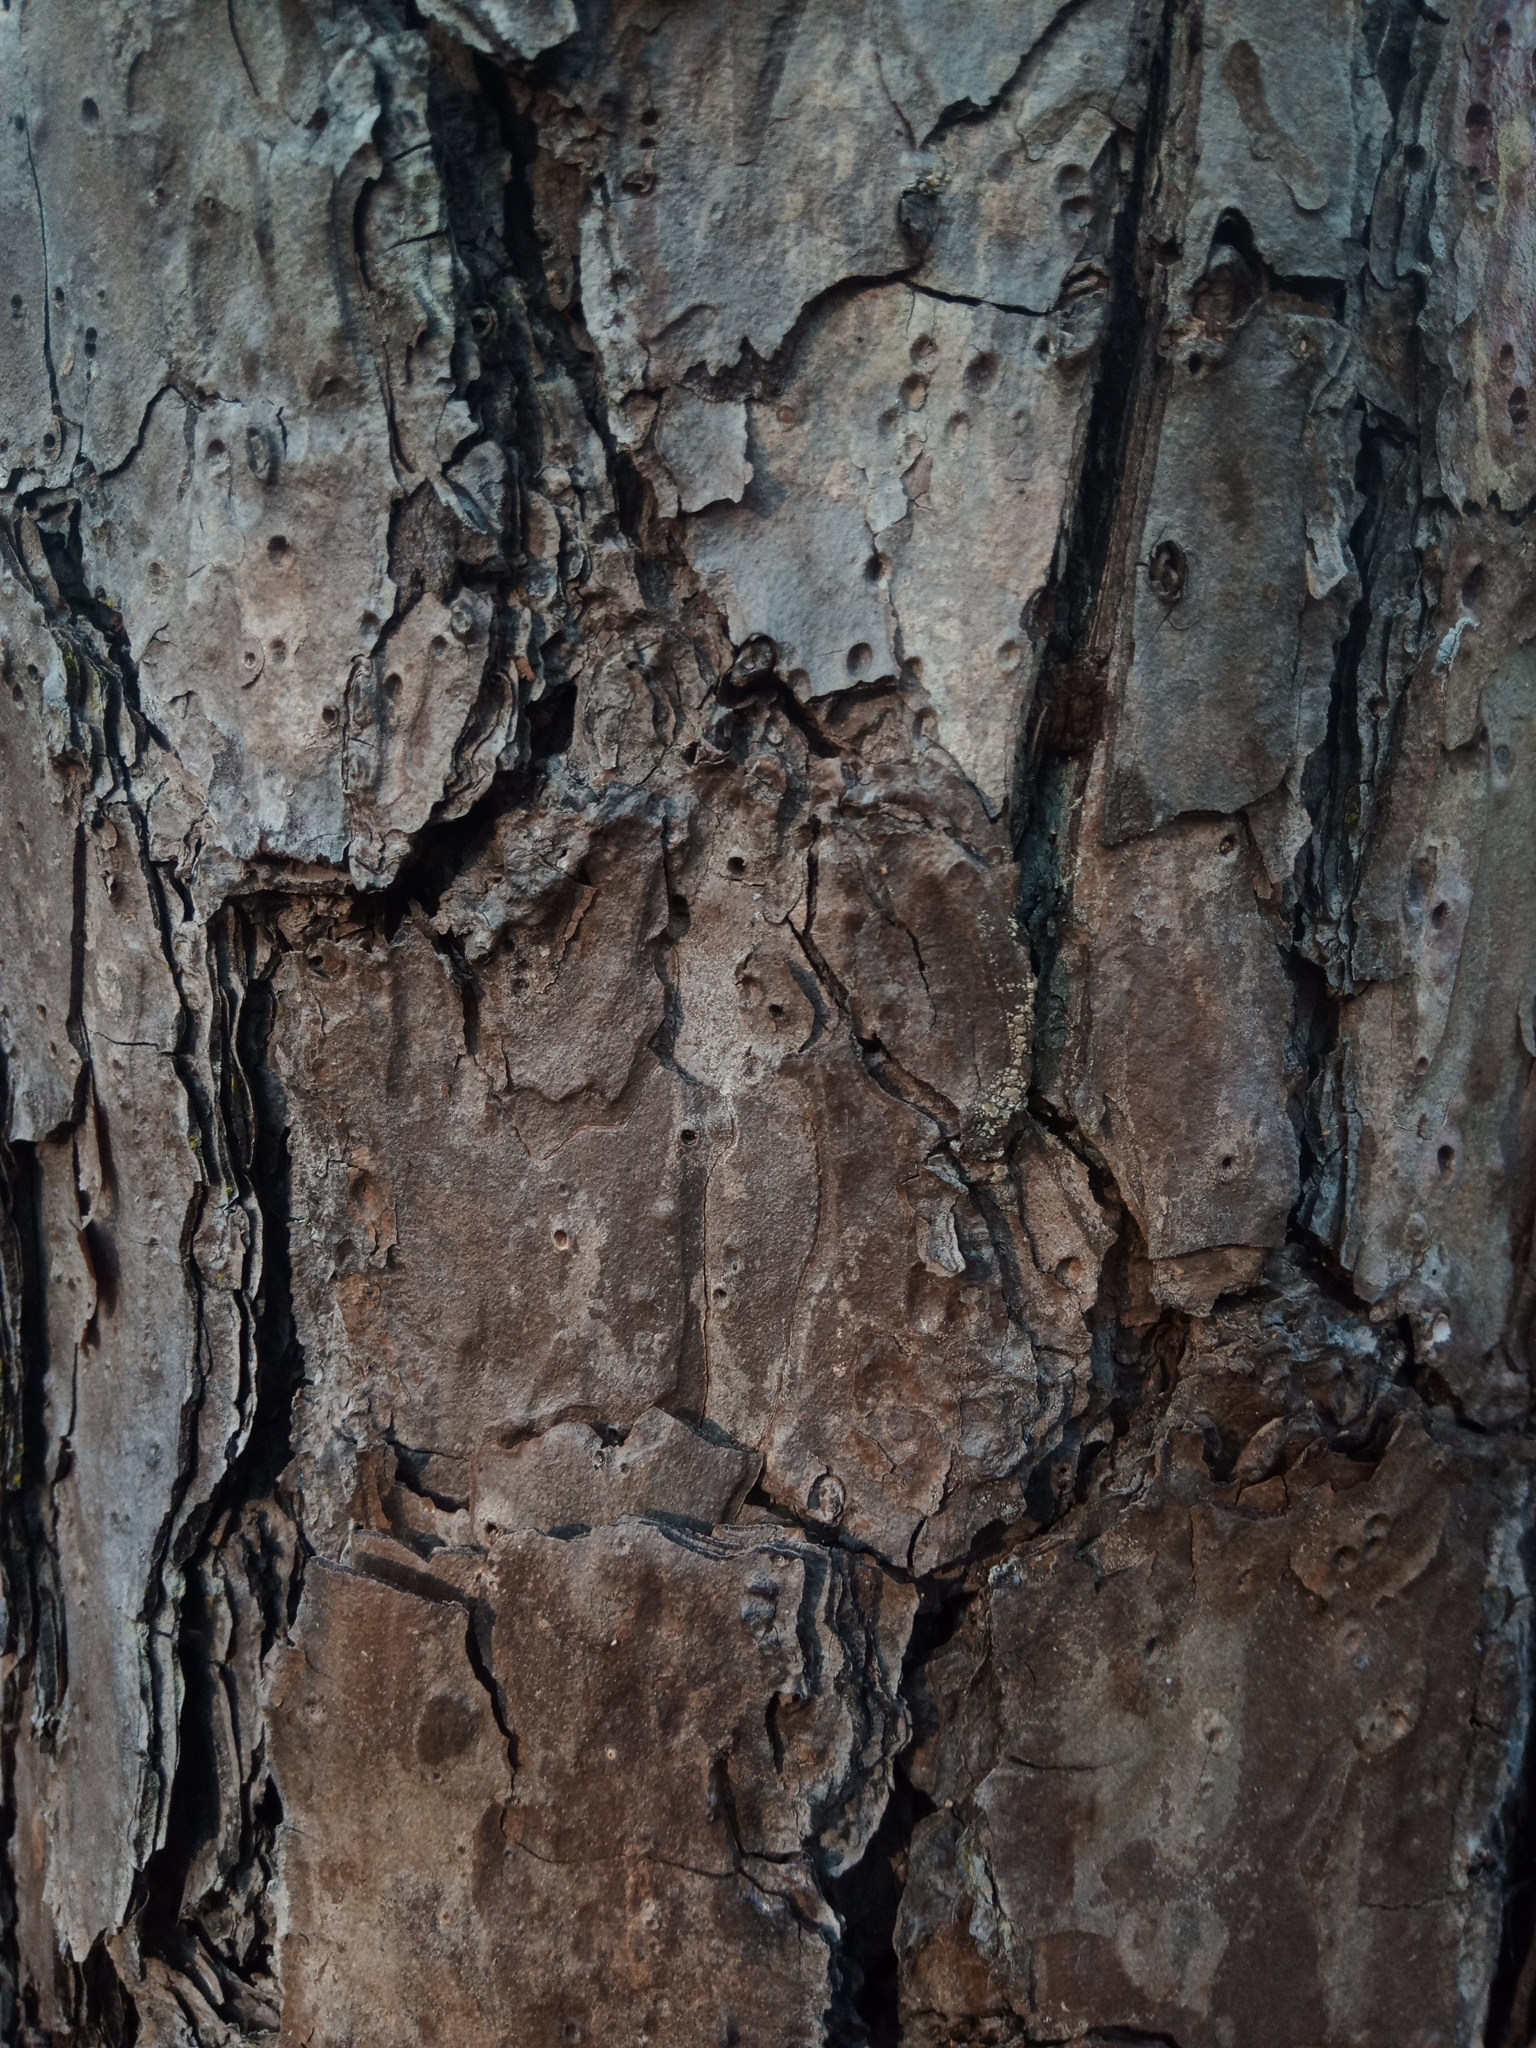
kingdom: Plantae
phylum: Tracheophyta
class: Pinopsida
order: Pinales
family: Pinaceae
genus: Pinus
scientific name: Pinus echinata
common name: Shortleaf pine
